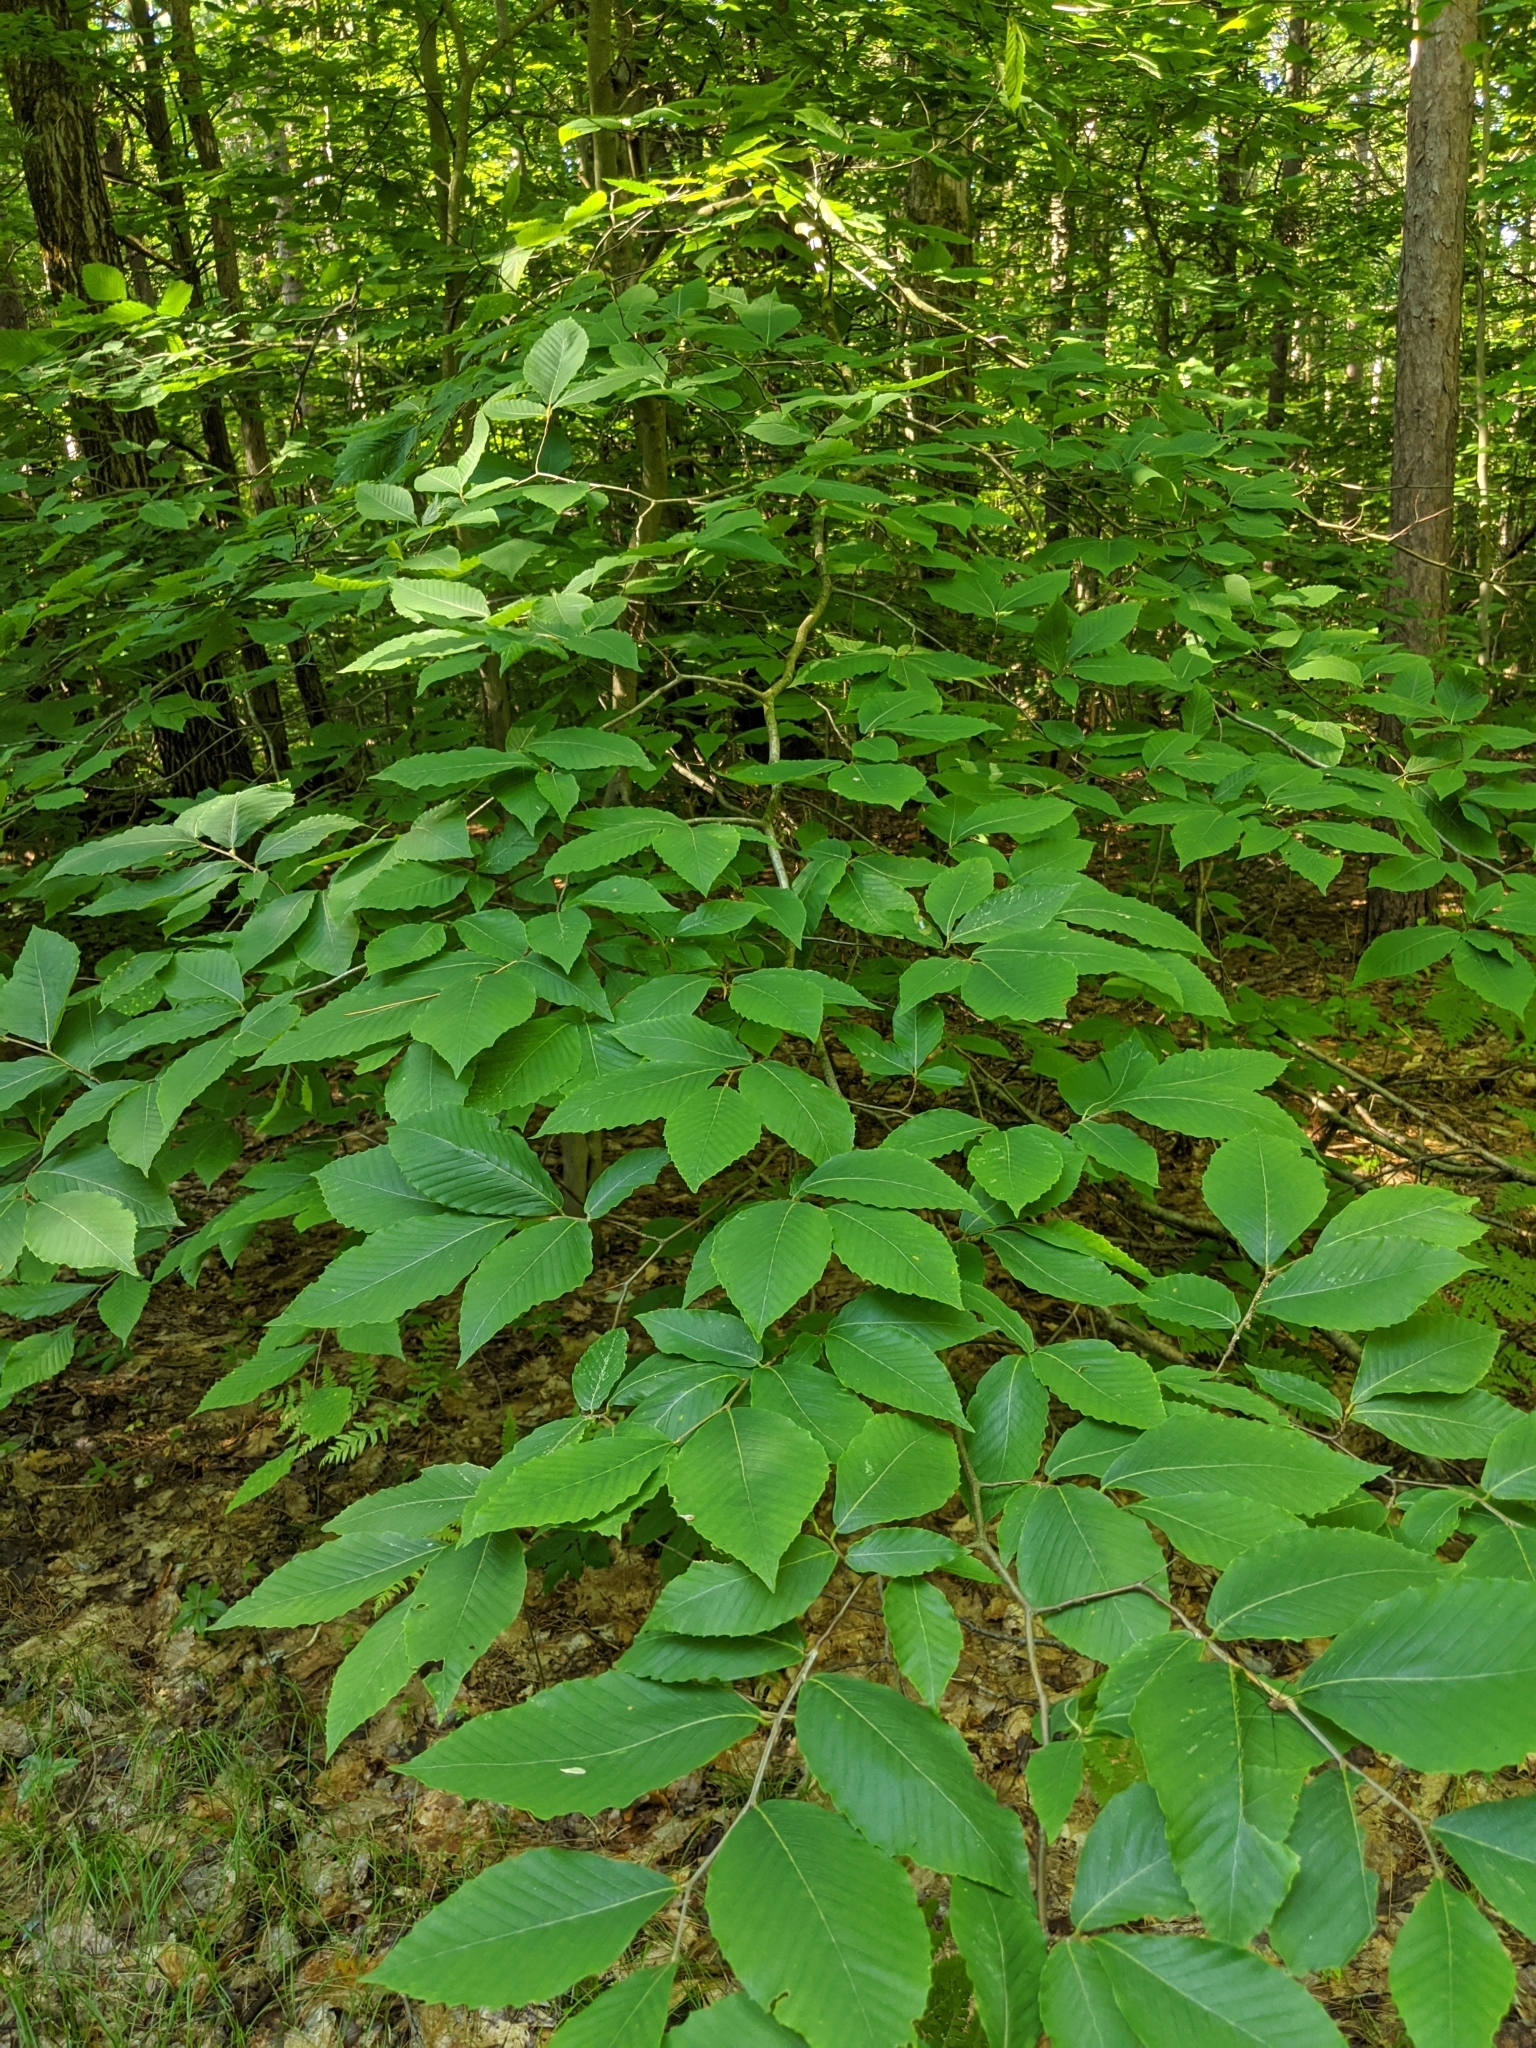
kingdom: Plantae
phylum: Tracheophyta
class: Magnoliopsida
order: Fagales
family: Fagaceae
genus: Fagus
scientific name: Fagus grandifolia
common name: American beech
